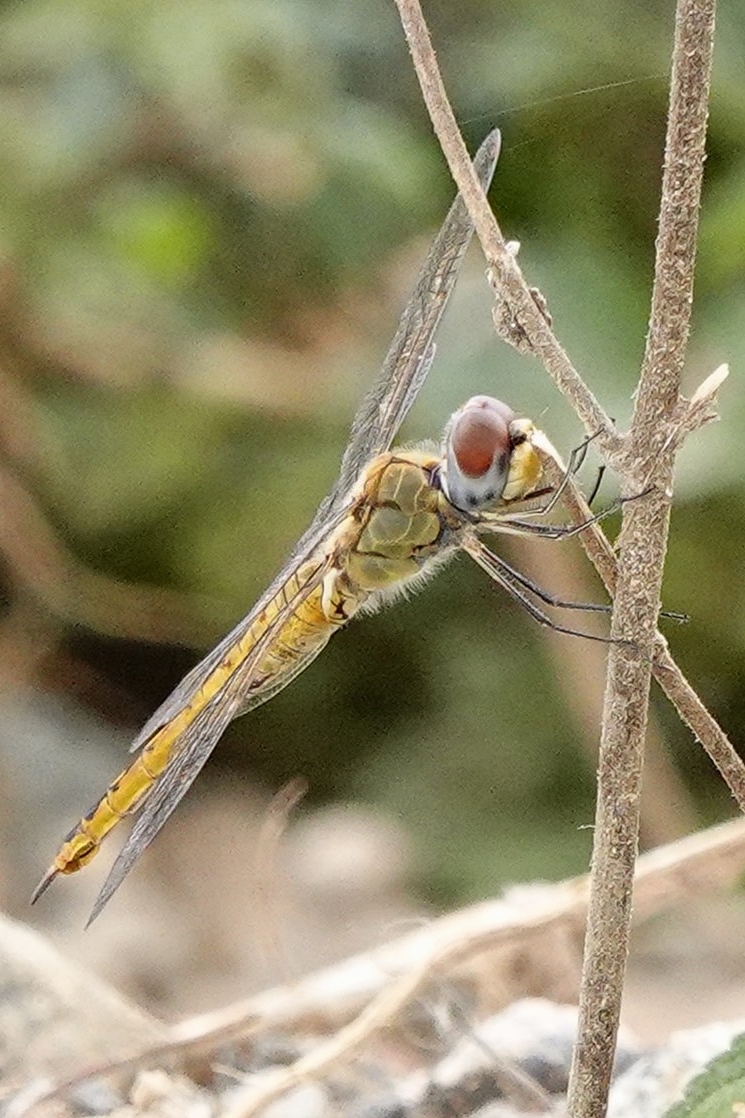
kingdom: Animalia
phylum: Arthropoda
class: Insecta
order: Odonata
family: Libellulidae
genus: Pantala
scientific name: Pantala flavescens
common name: Wandering glider
